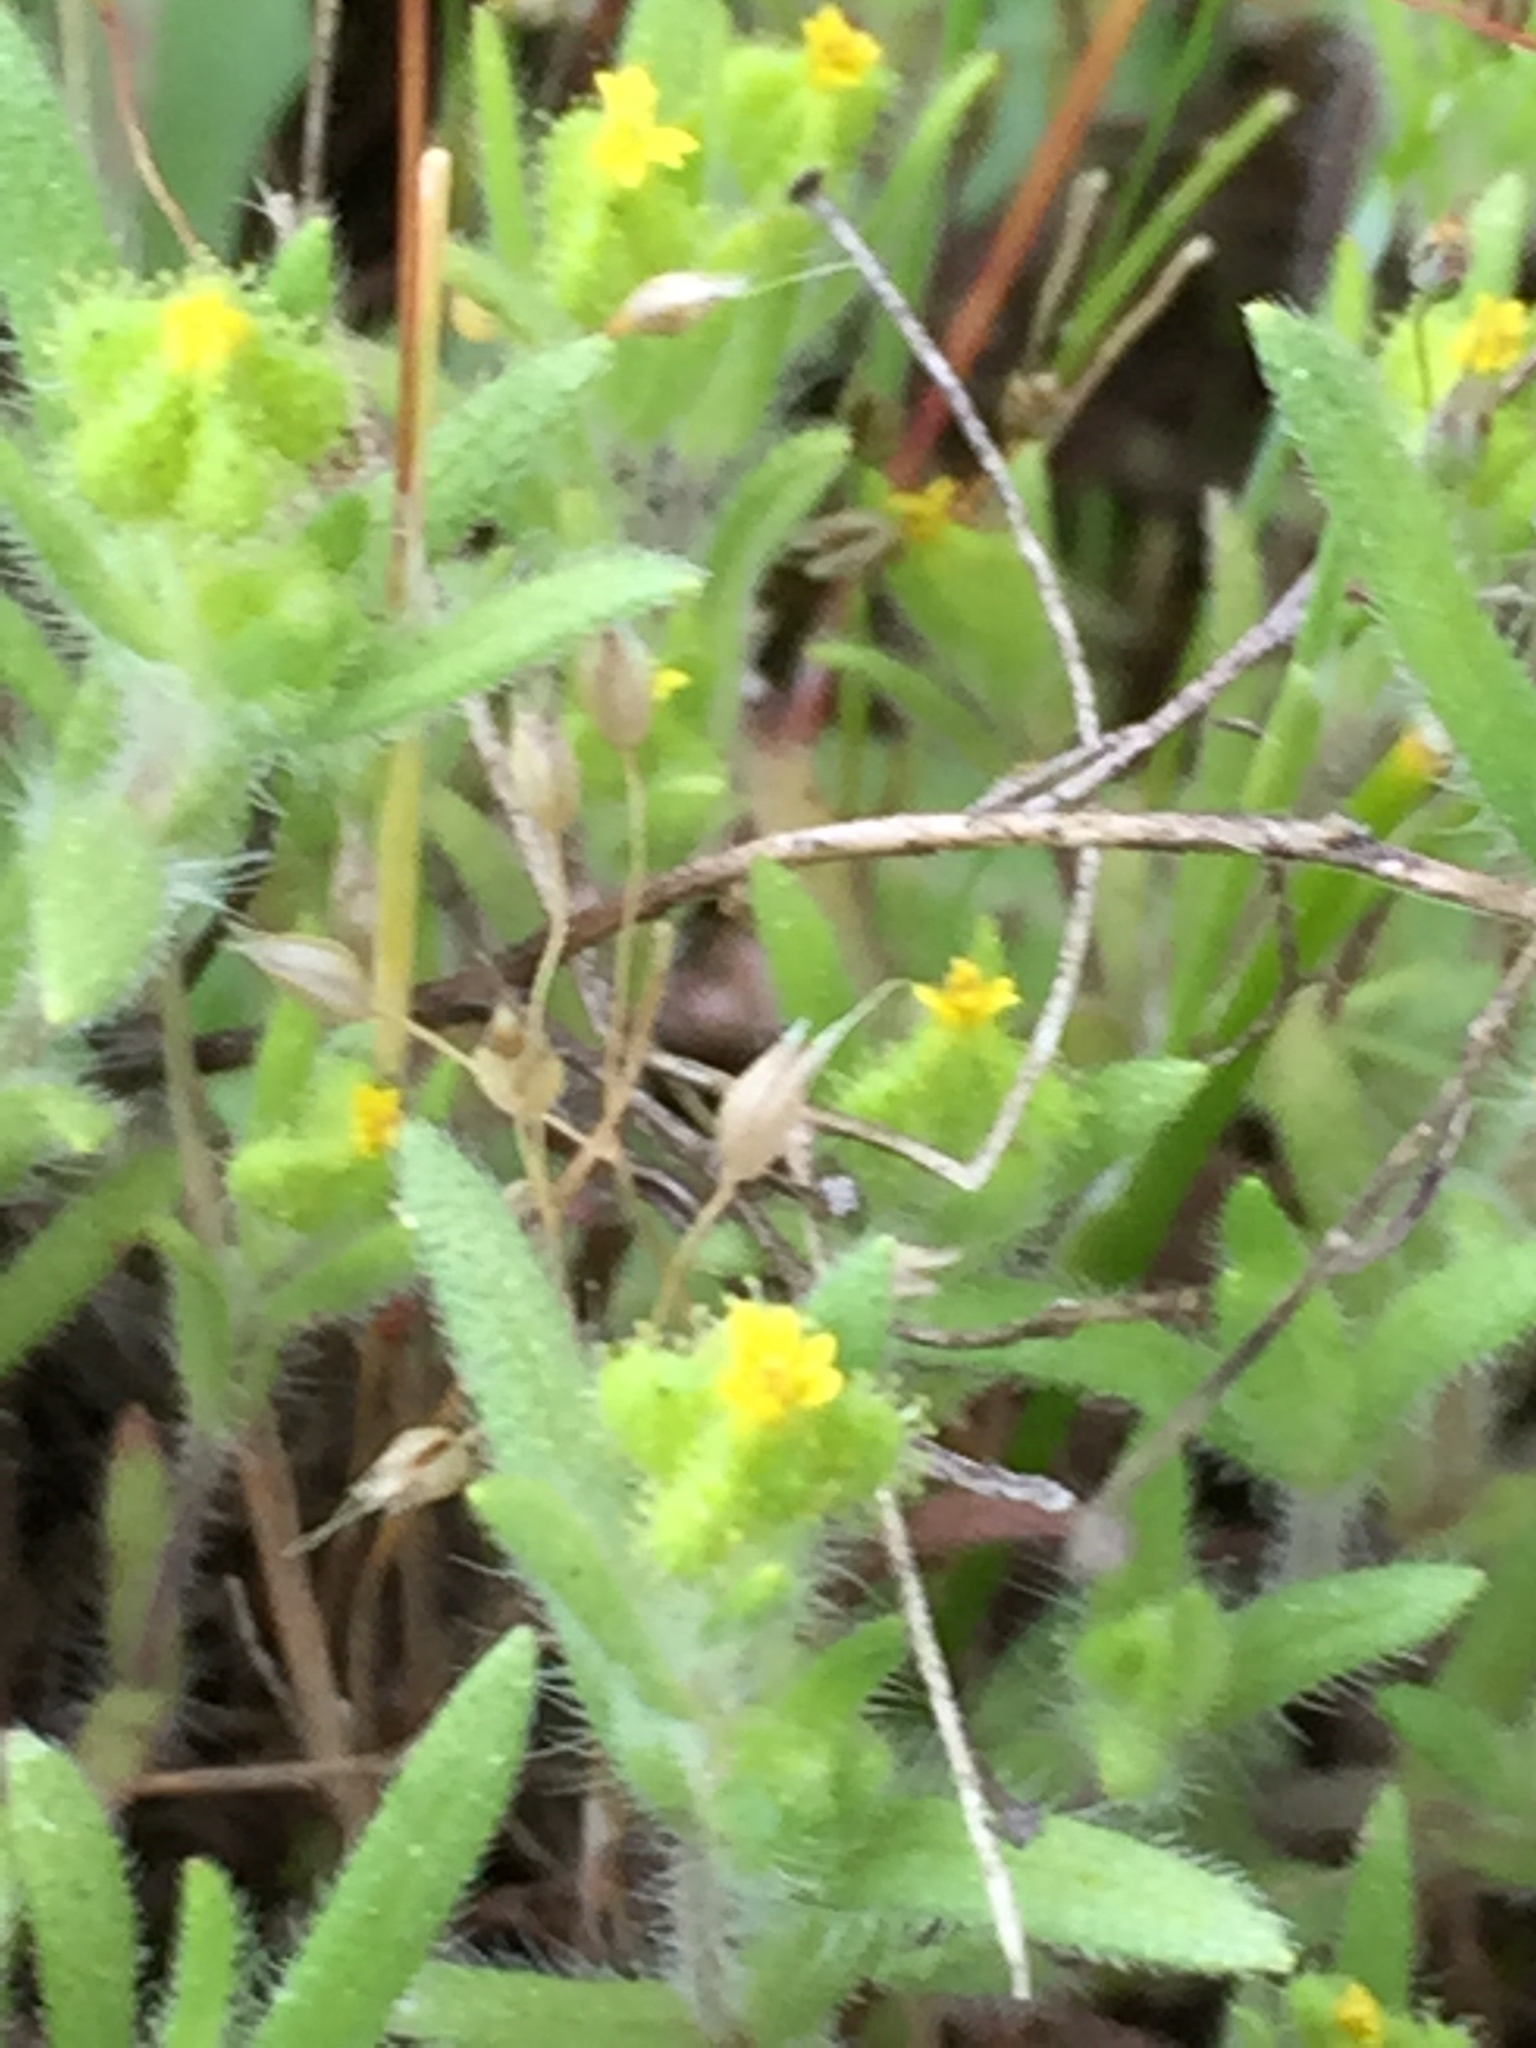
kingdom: Plantae
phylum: Tracheophyta
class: Magnoliopsida
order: Asterales
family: Asteraceae
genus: Madia
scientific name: Madia exigua
